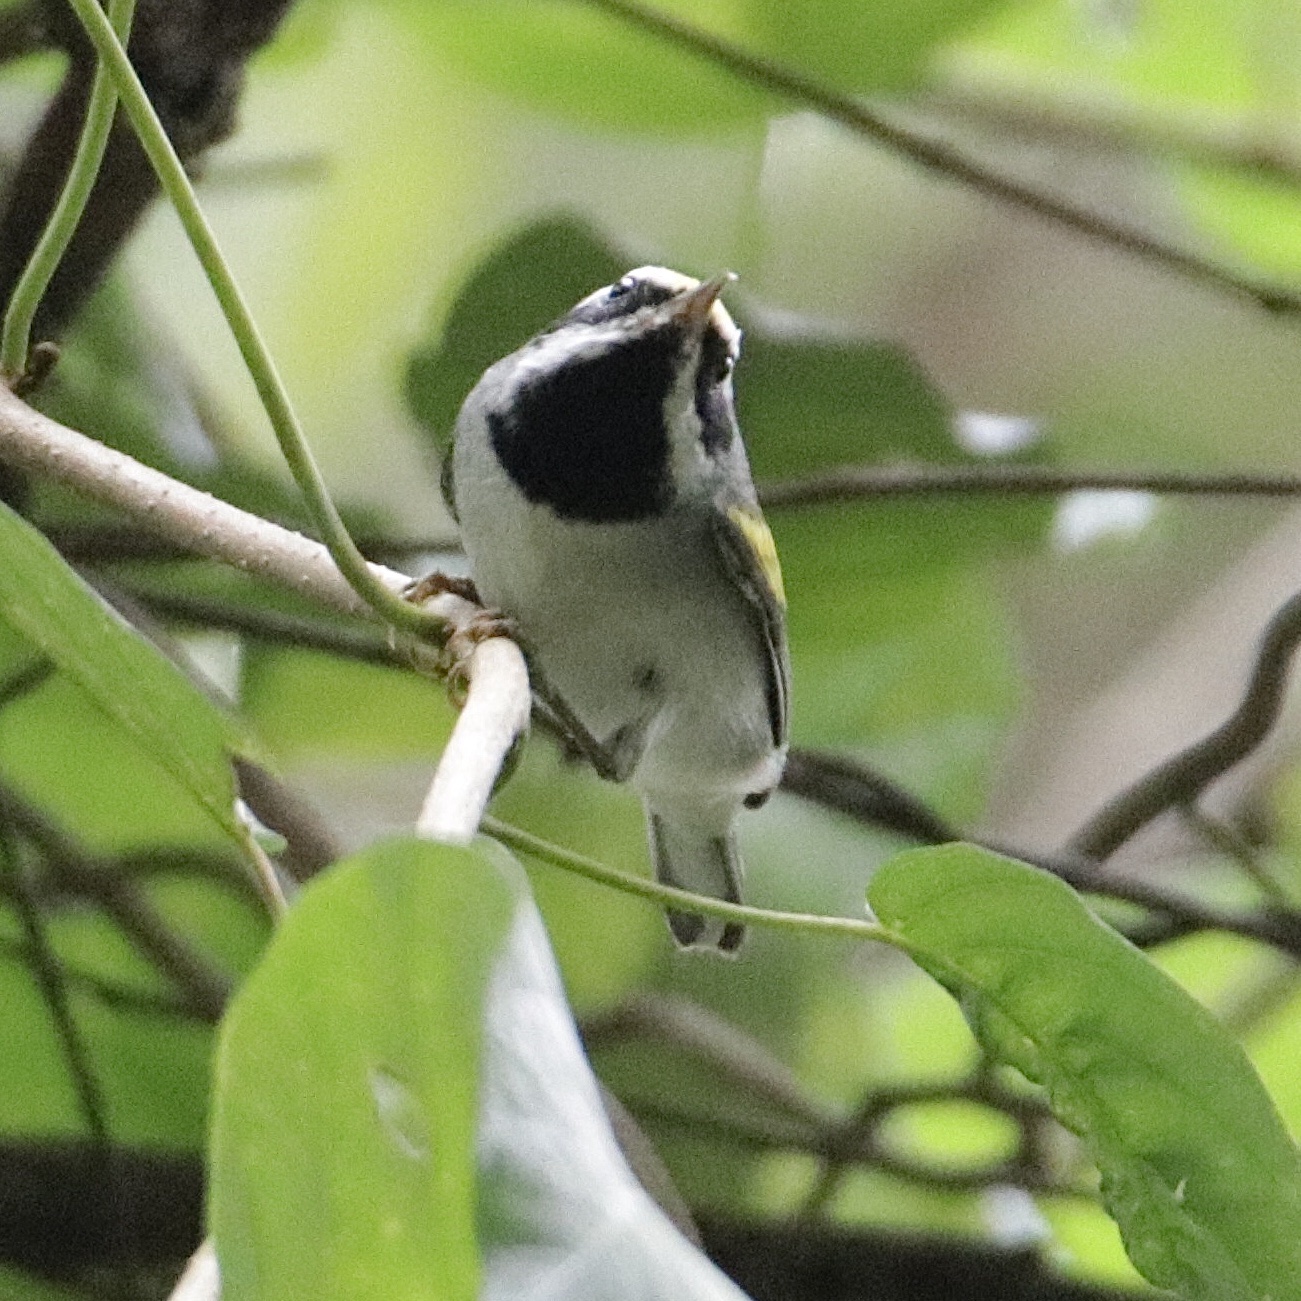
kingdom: Animalia
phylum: Chordata
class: Aves
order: Passeriformes
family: Parulidae
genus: Vermivora
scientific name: Vermivora chrysoptera
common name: Golden-winged warbler
